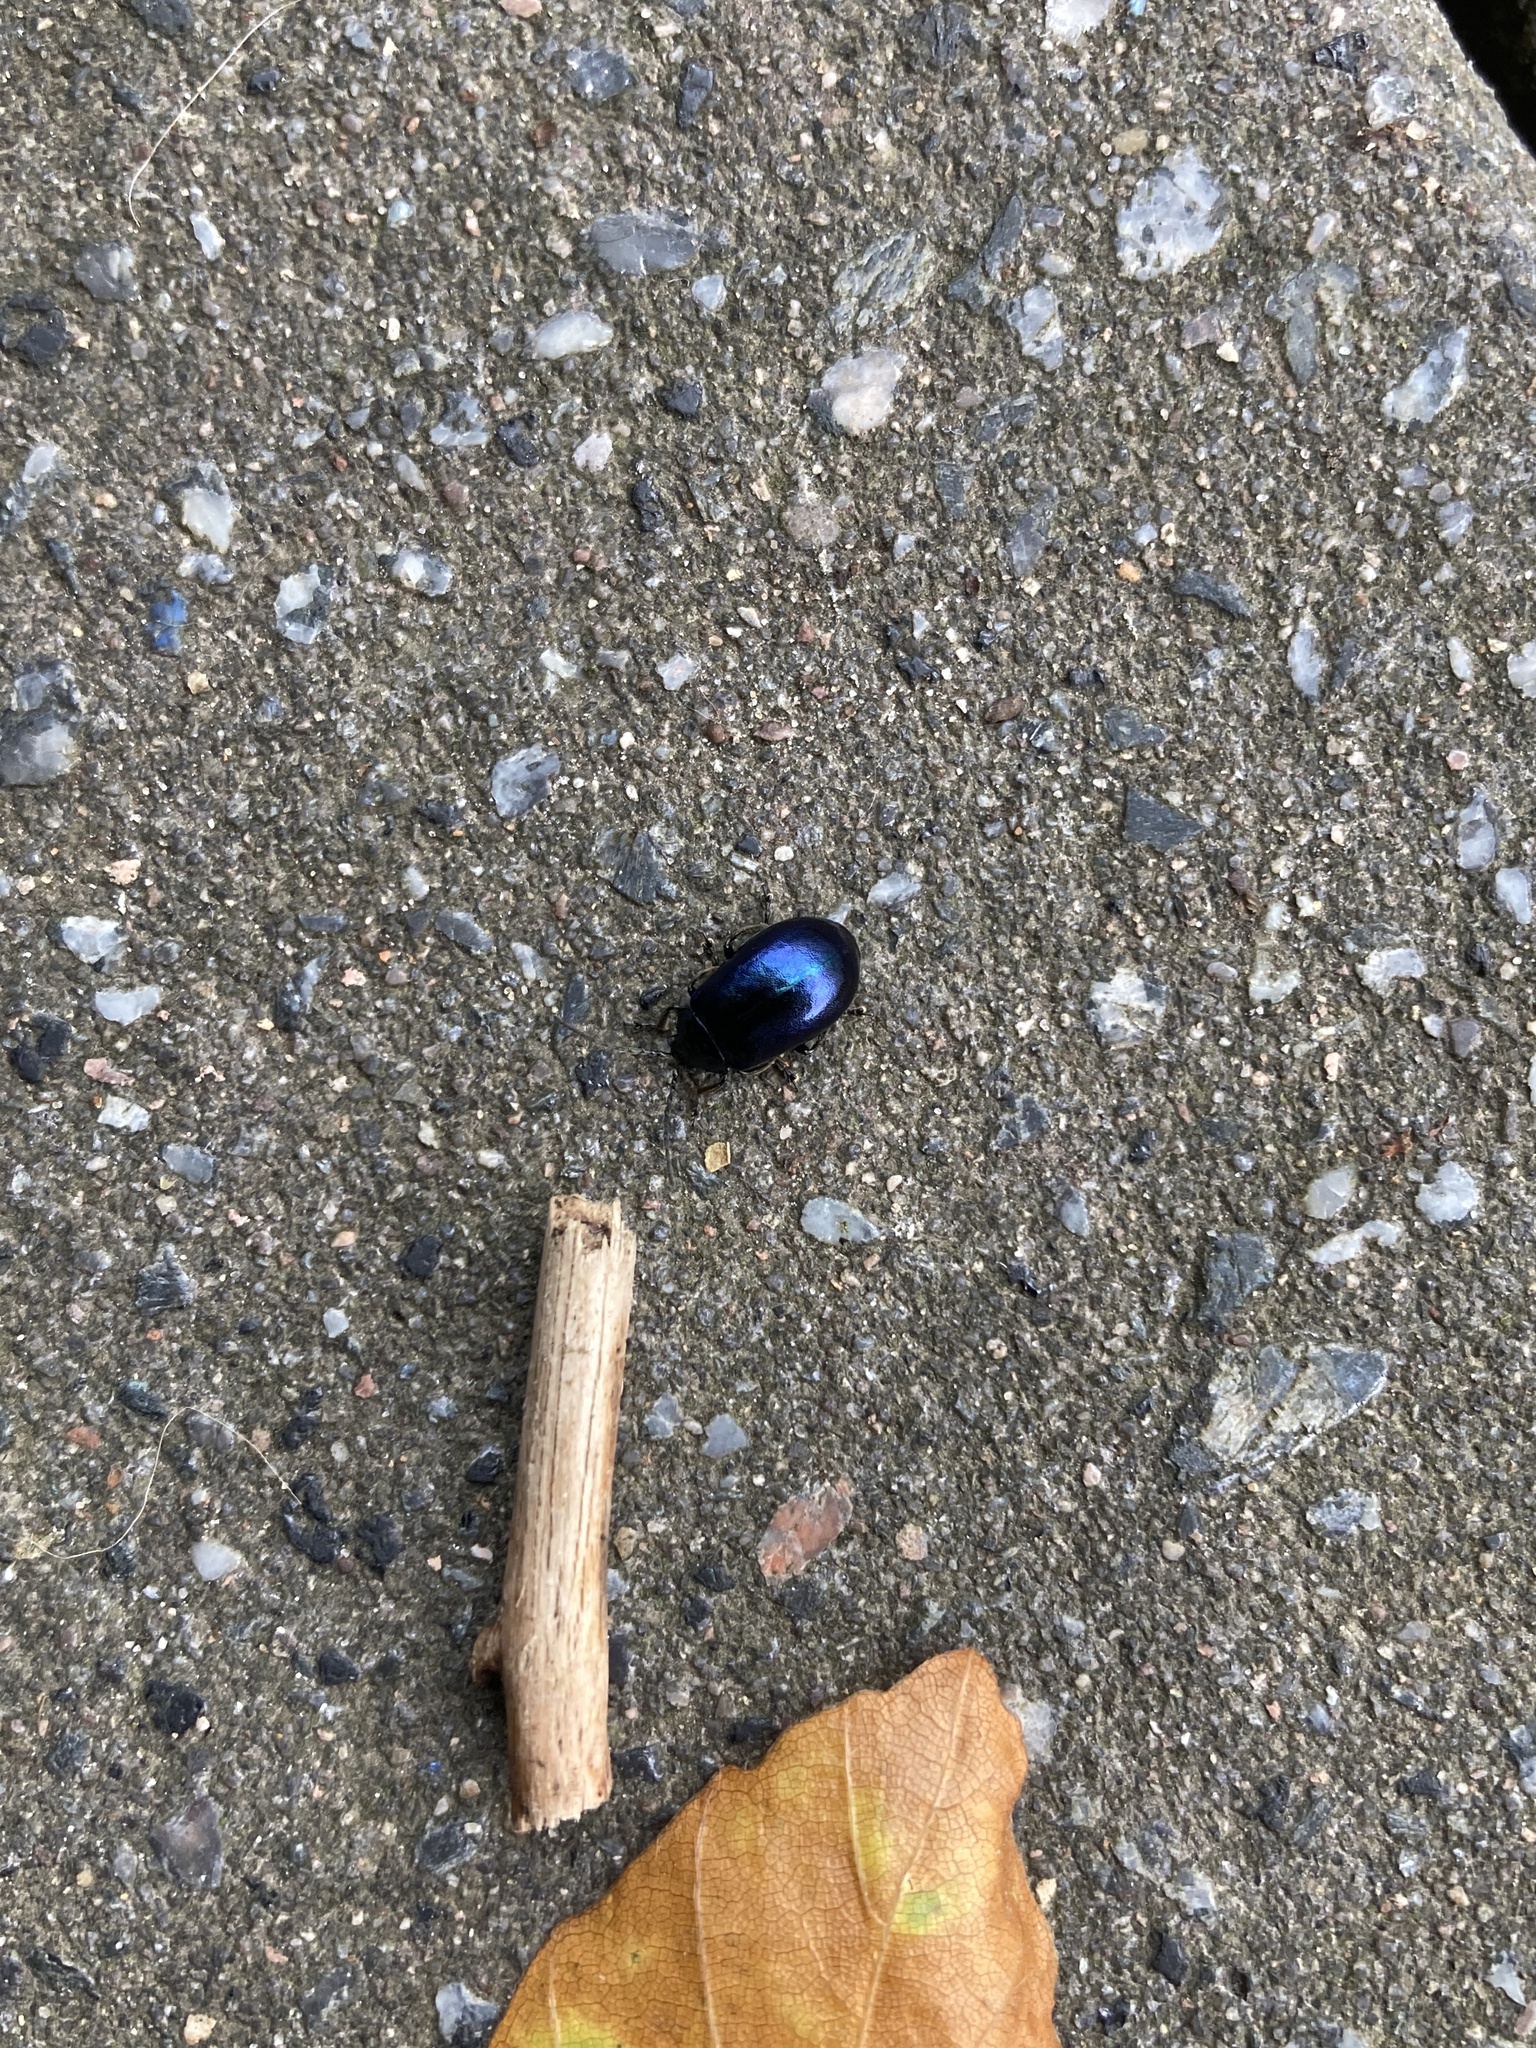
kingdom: Animalia
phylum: Arthropoda
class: Insecta
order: Coleoptera
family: Chrysomelidae
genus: Agelastica
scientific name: Agelastica alni
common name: Alder leaf beetle
